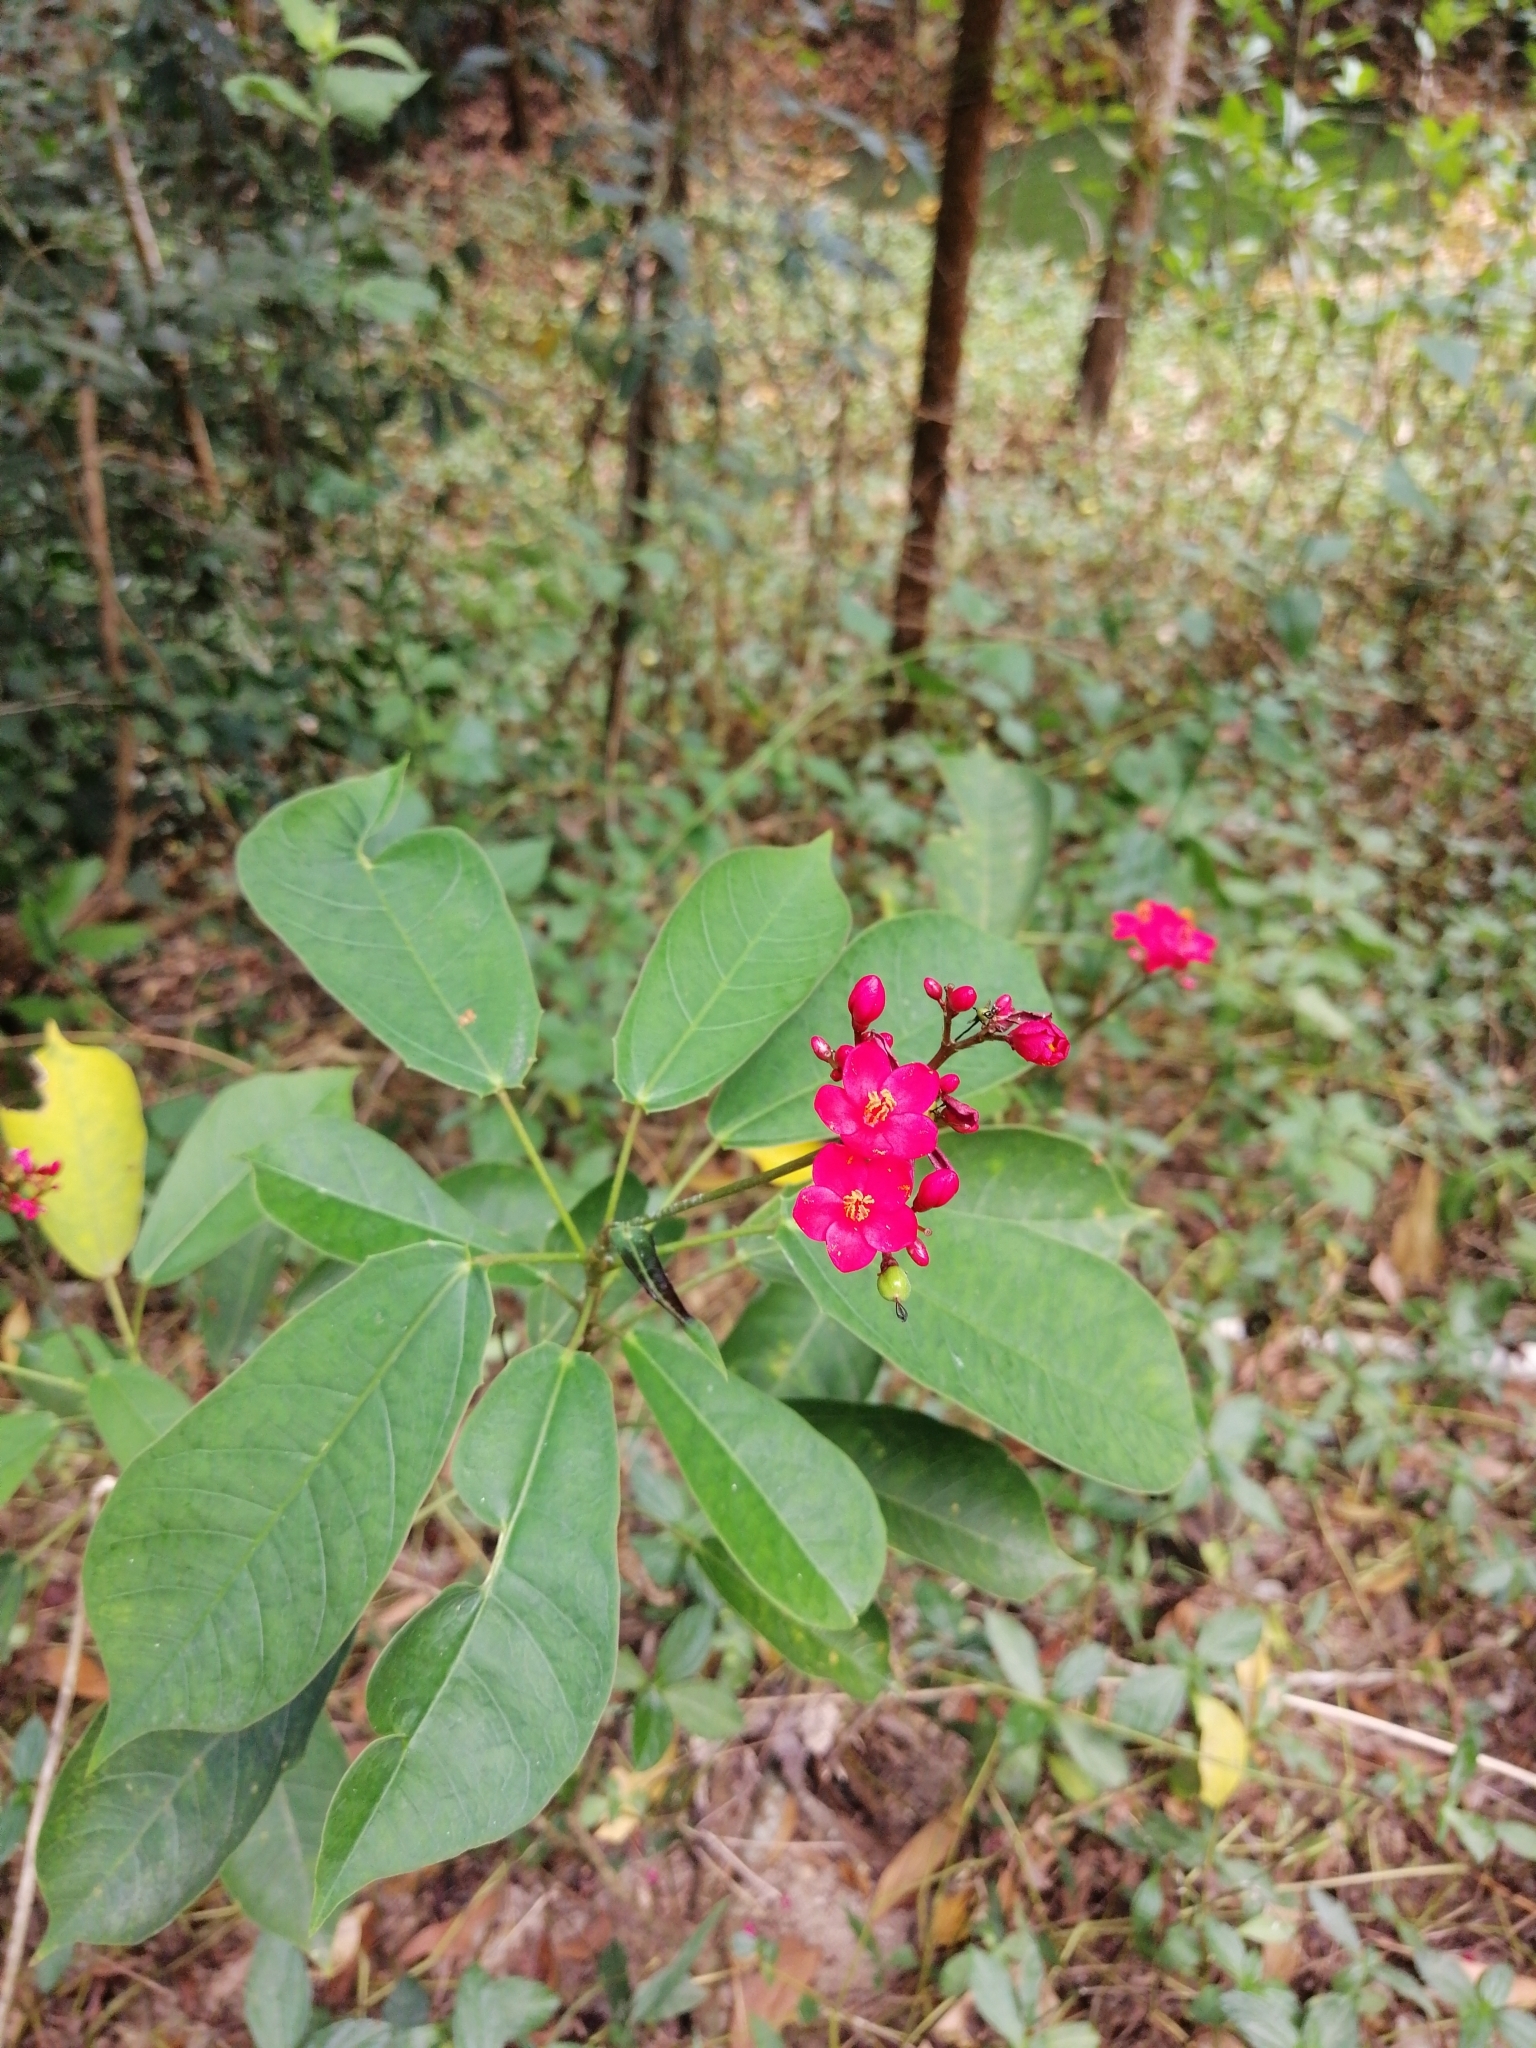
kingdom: Plantae
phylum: Tracheophyta
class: Magnoliopsida
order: Malpighiales
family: Euphorbiaceae
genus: Jatropha
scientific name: Jatropha integerrima
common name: Peregrina
